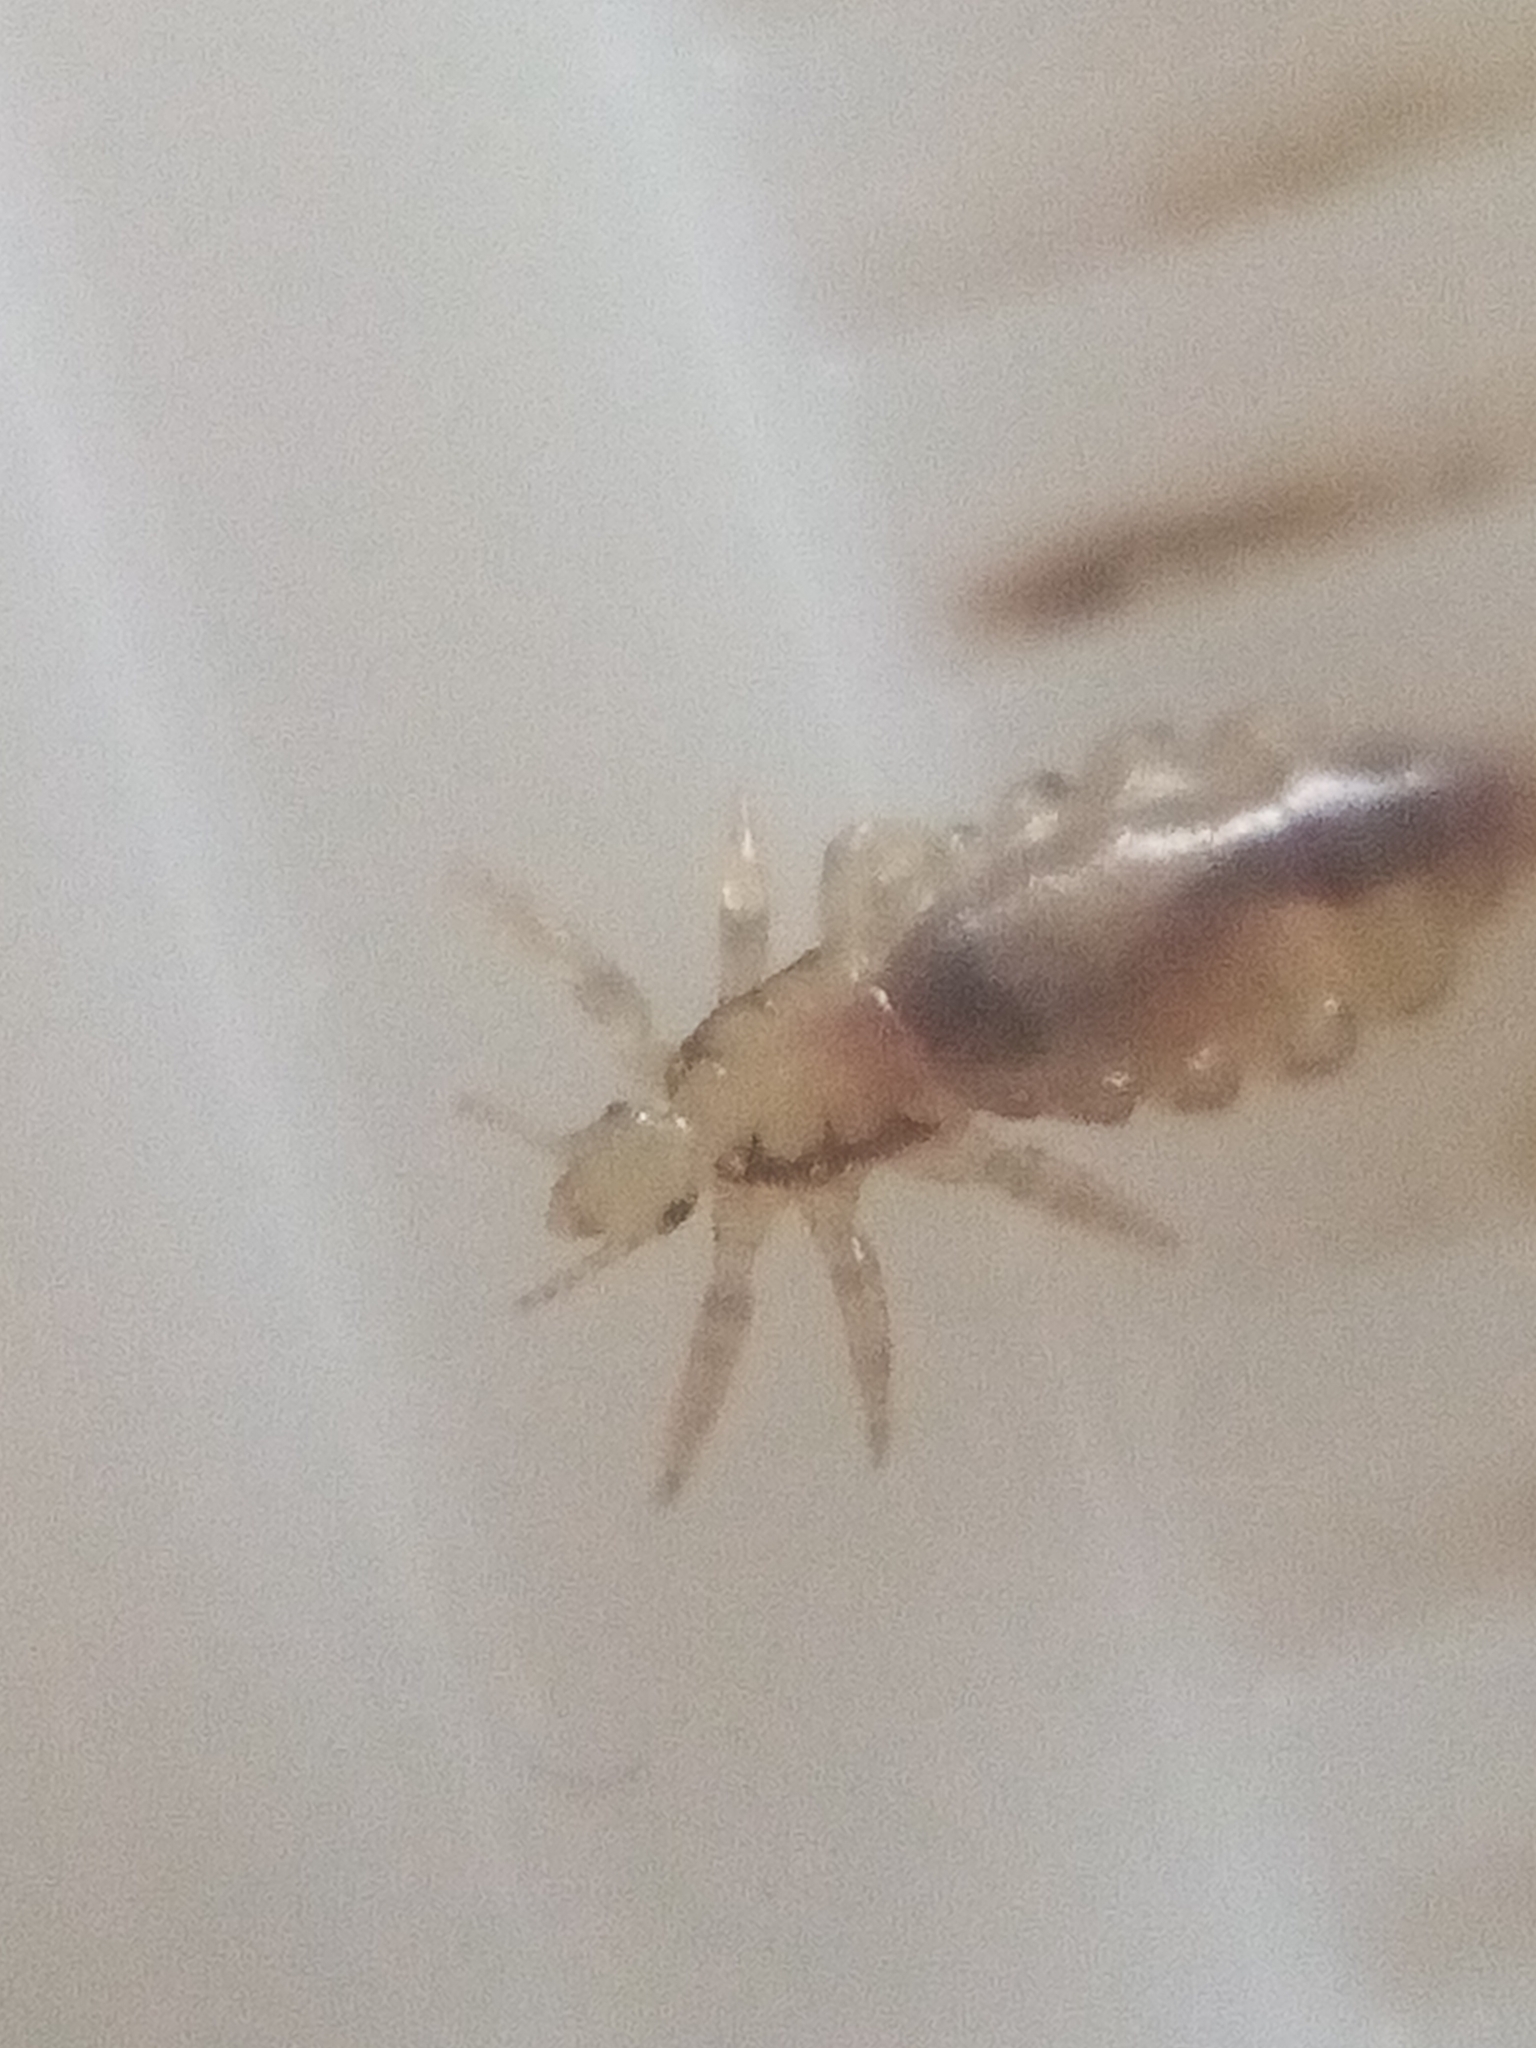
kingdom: Animalia
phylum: Arthropoda
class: Insecta
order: Psocodea
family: Pediculidae
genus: Pediculus
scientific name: Pediculus humanus
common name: Body louse
